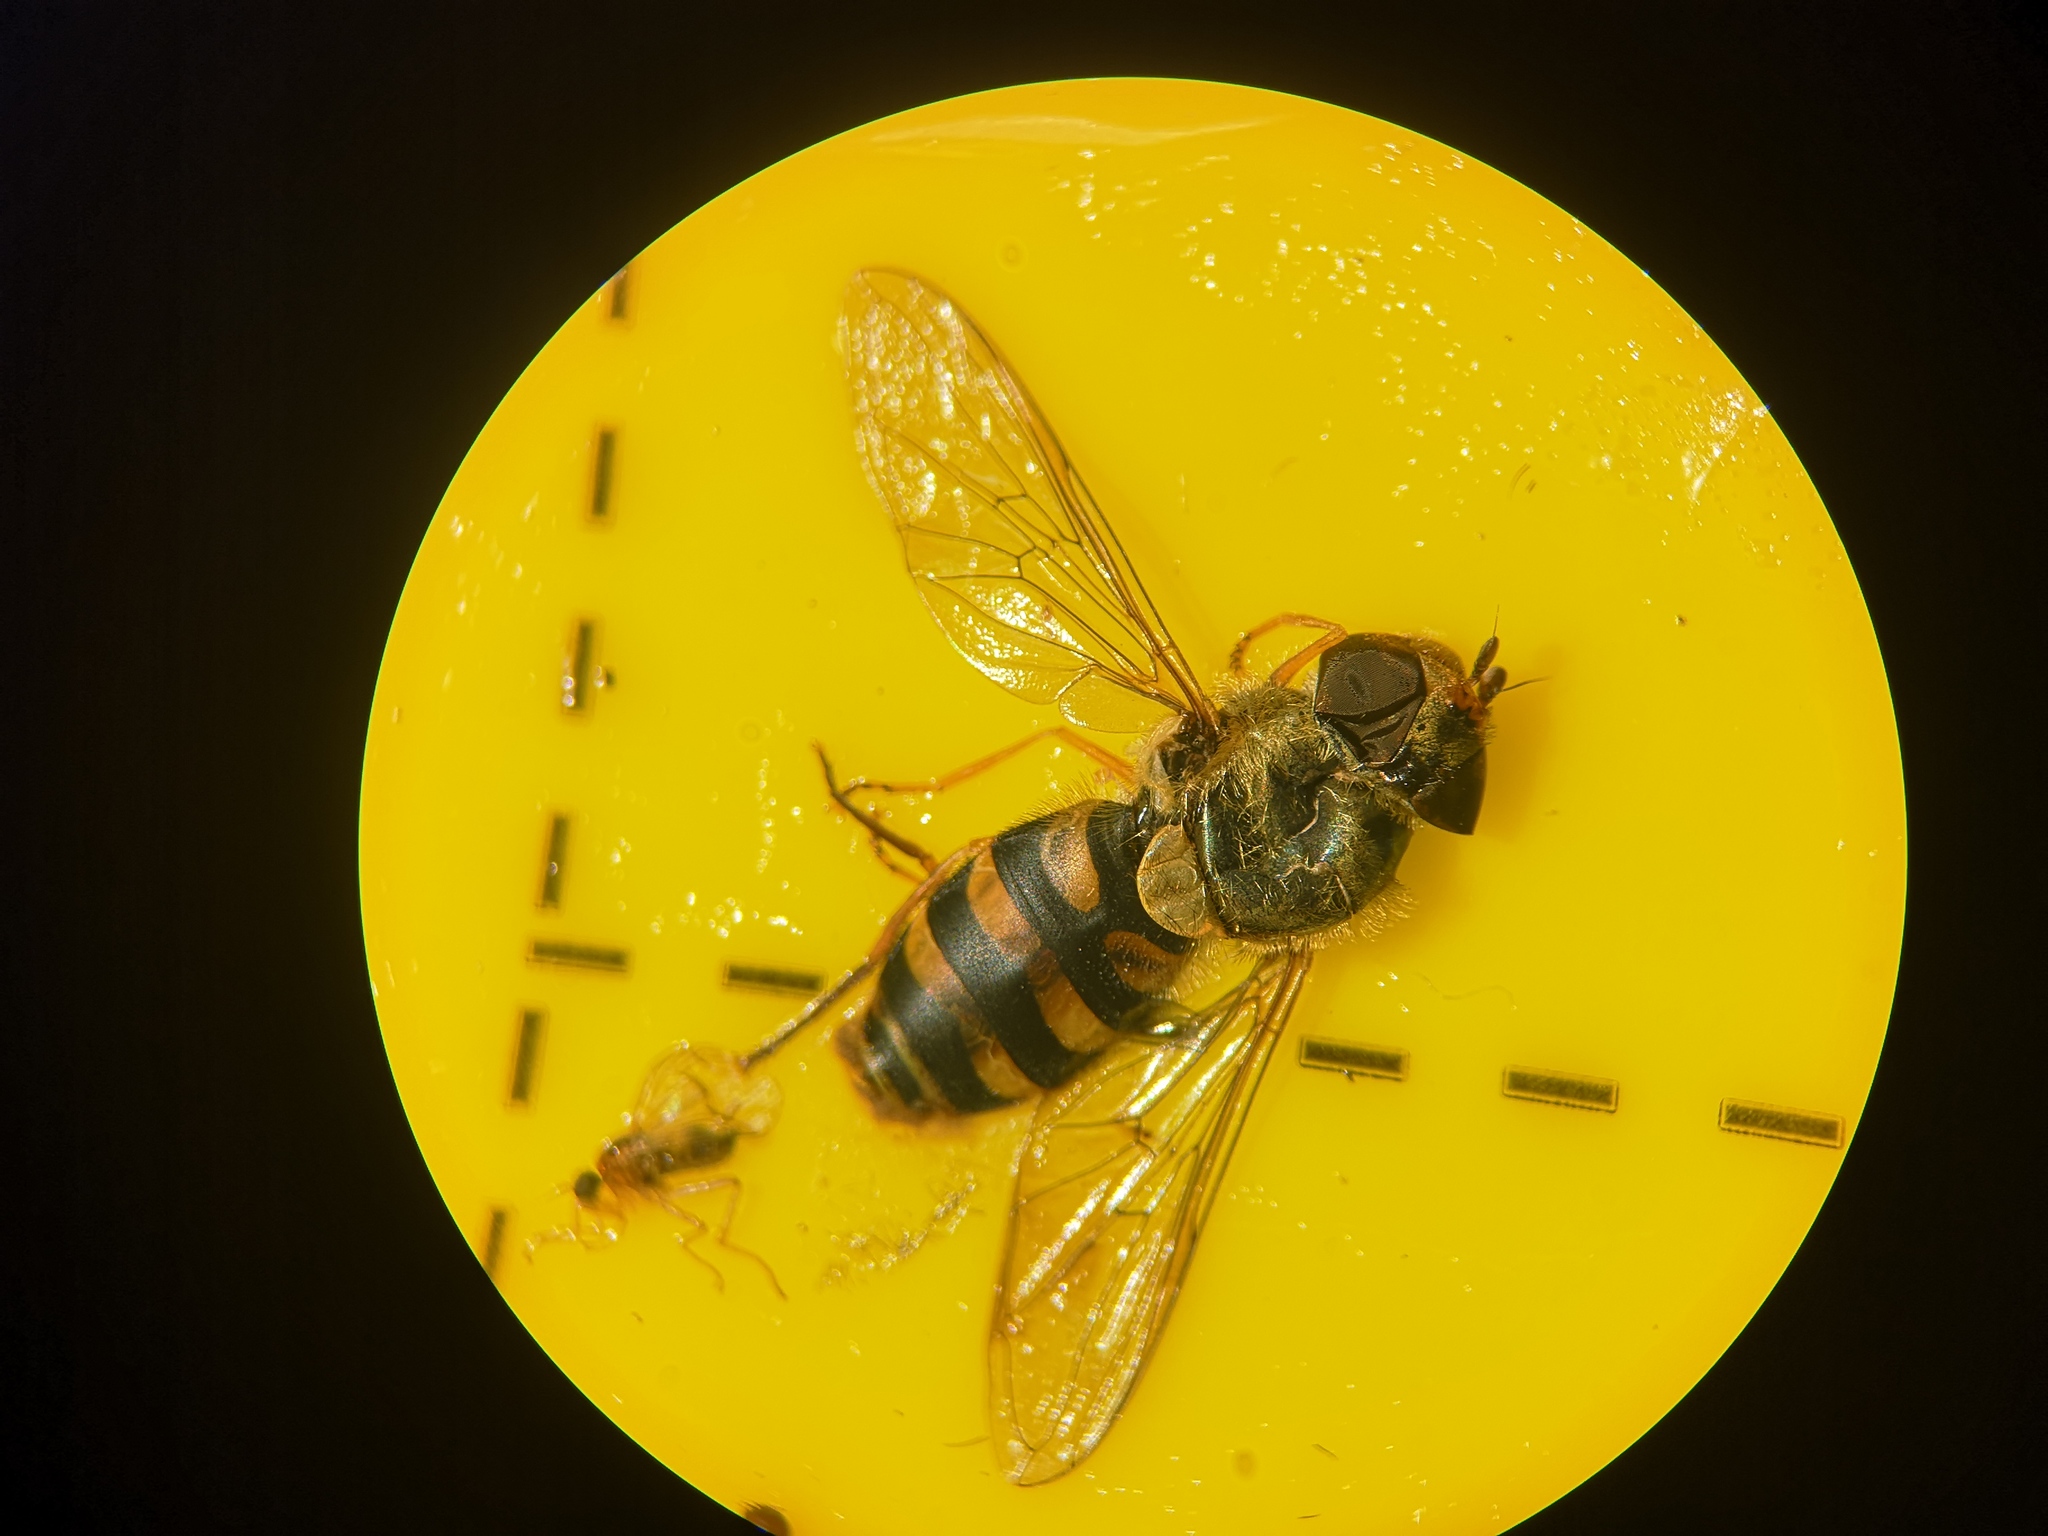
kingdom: Animalia
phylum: Arthropoda
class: Insecta
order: Diptera
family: Syrphidae
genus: Syrphus
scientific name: Syrphus
